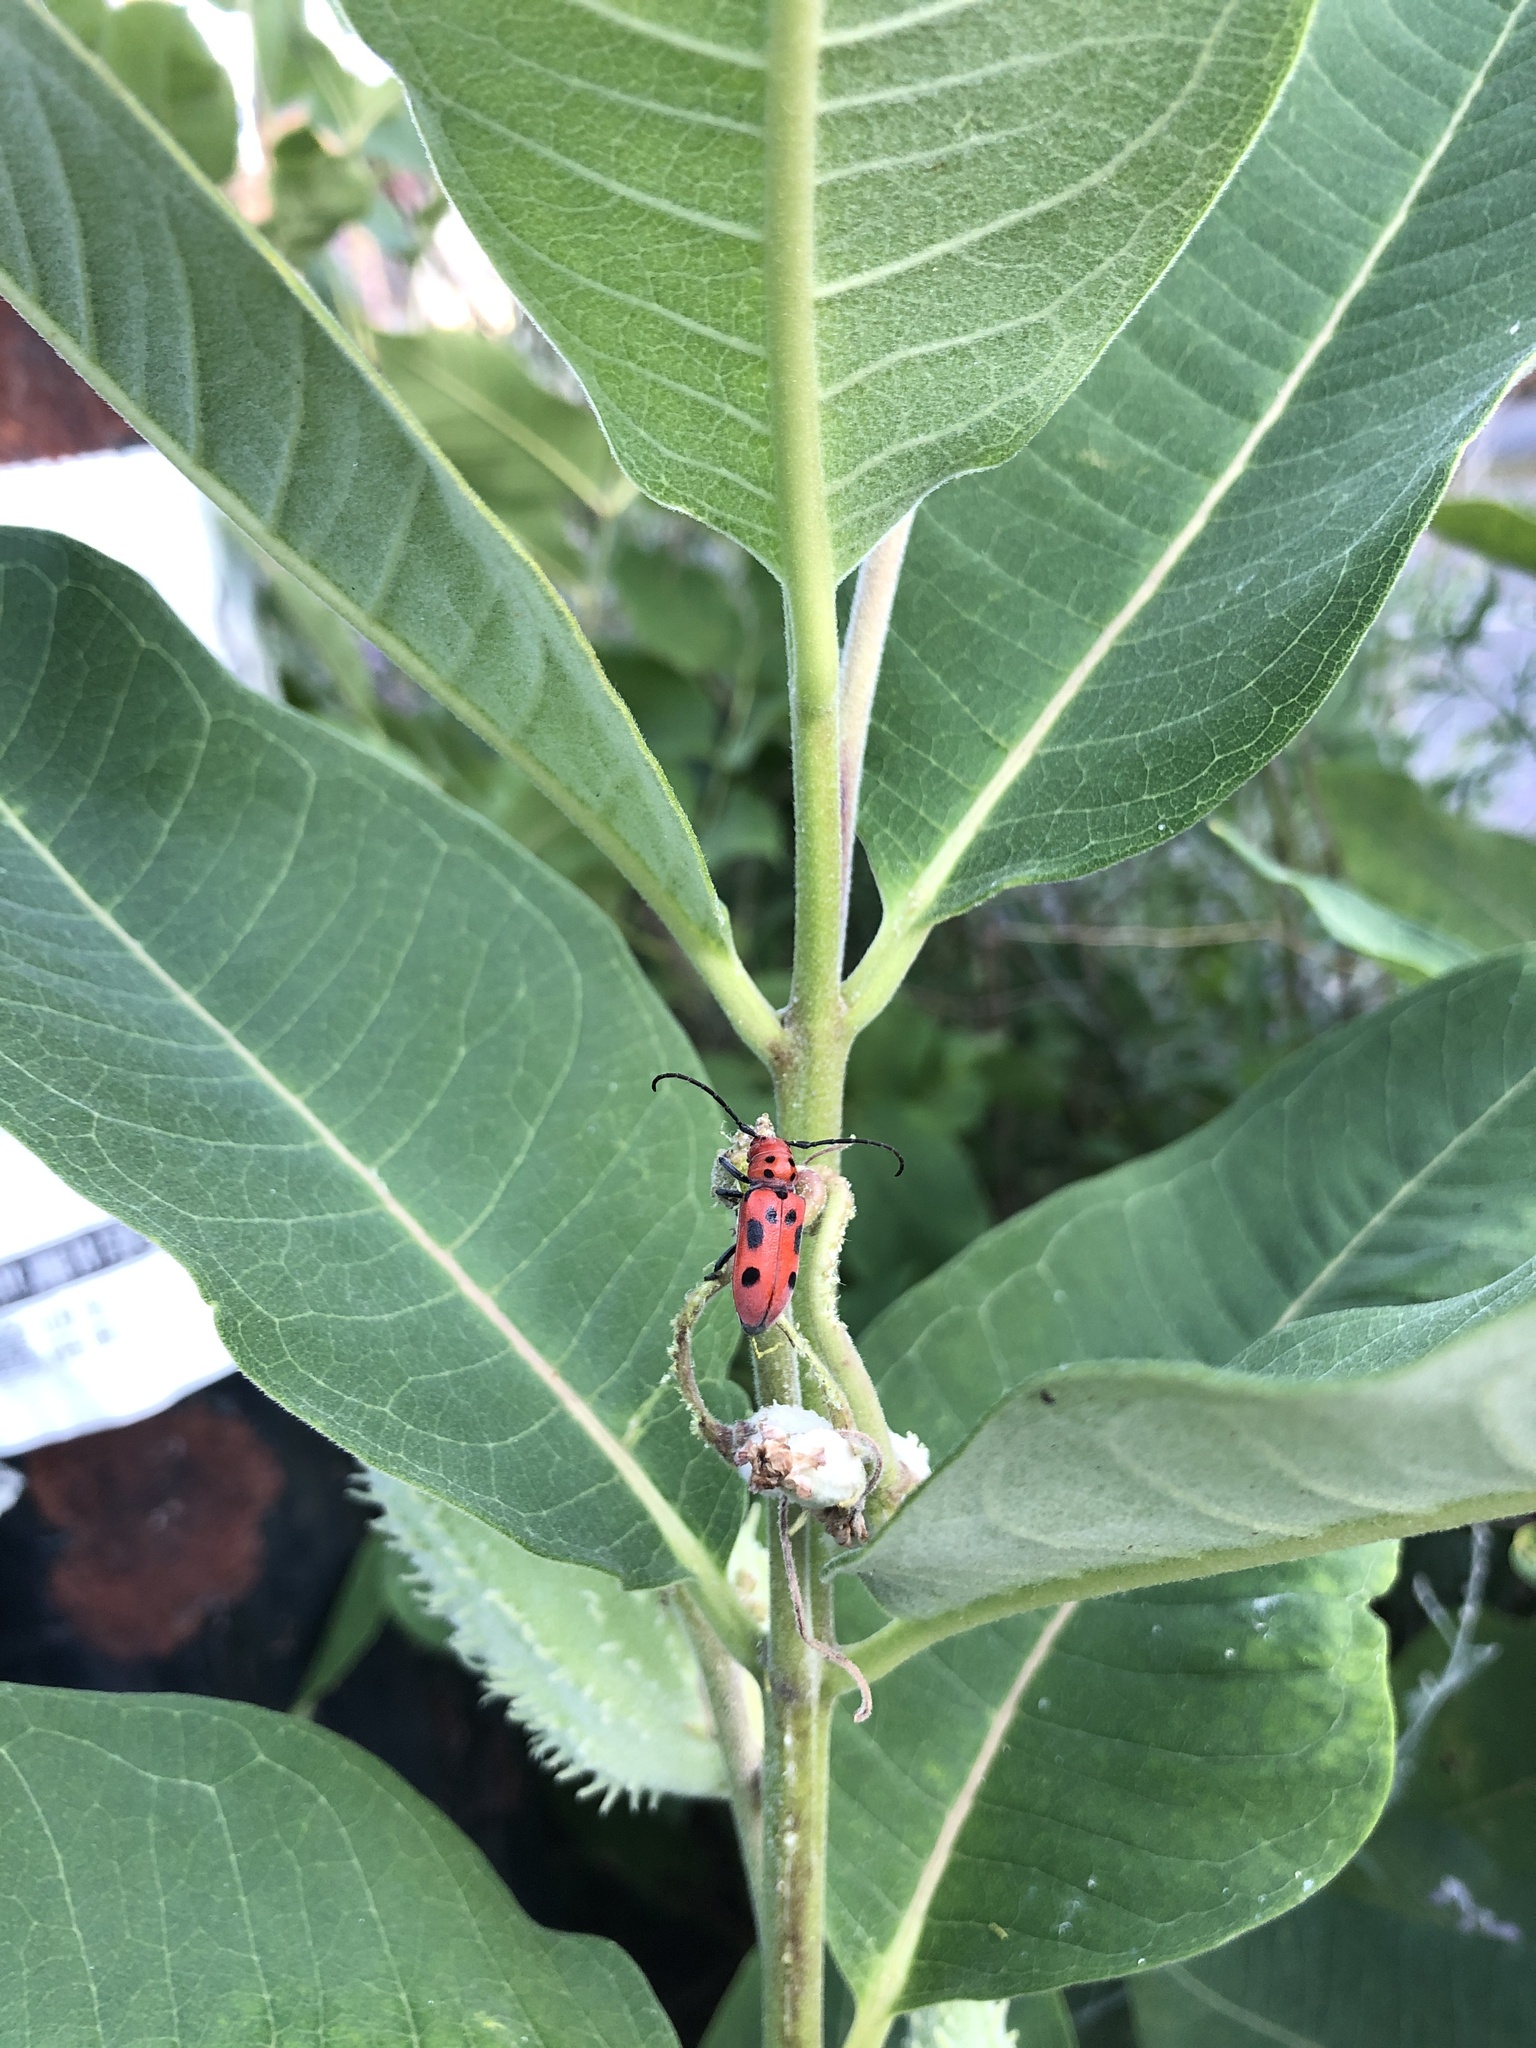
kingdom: Animalia
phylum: Arthropoda
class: Insecta
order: Coleoptera
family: Cerambycidae
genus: Tetraopes
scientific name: Tetraopes tetrophthalmus
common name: Red milkweed beetle
